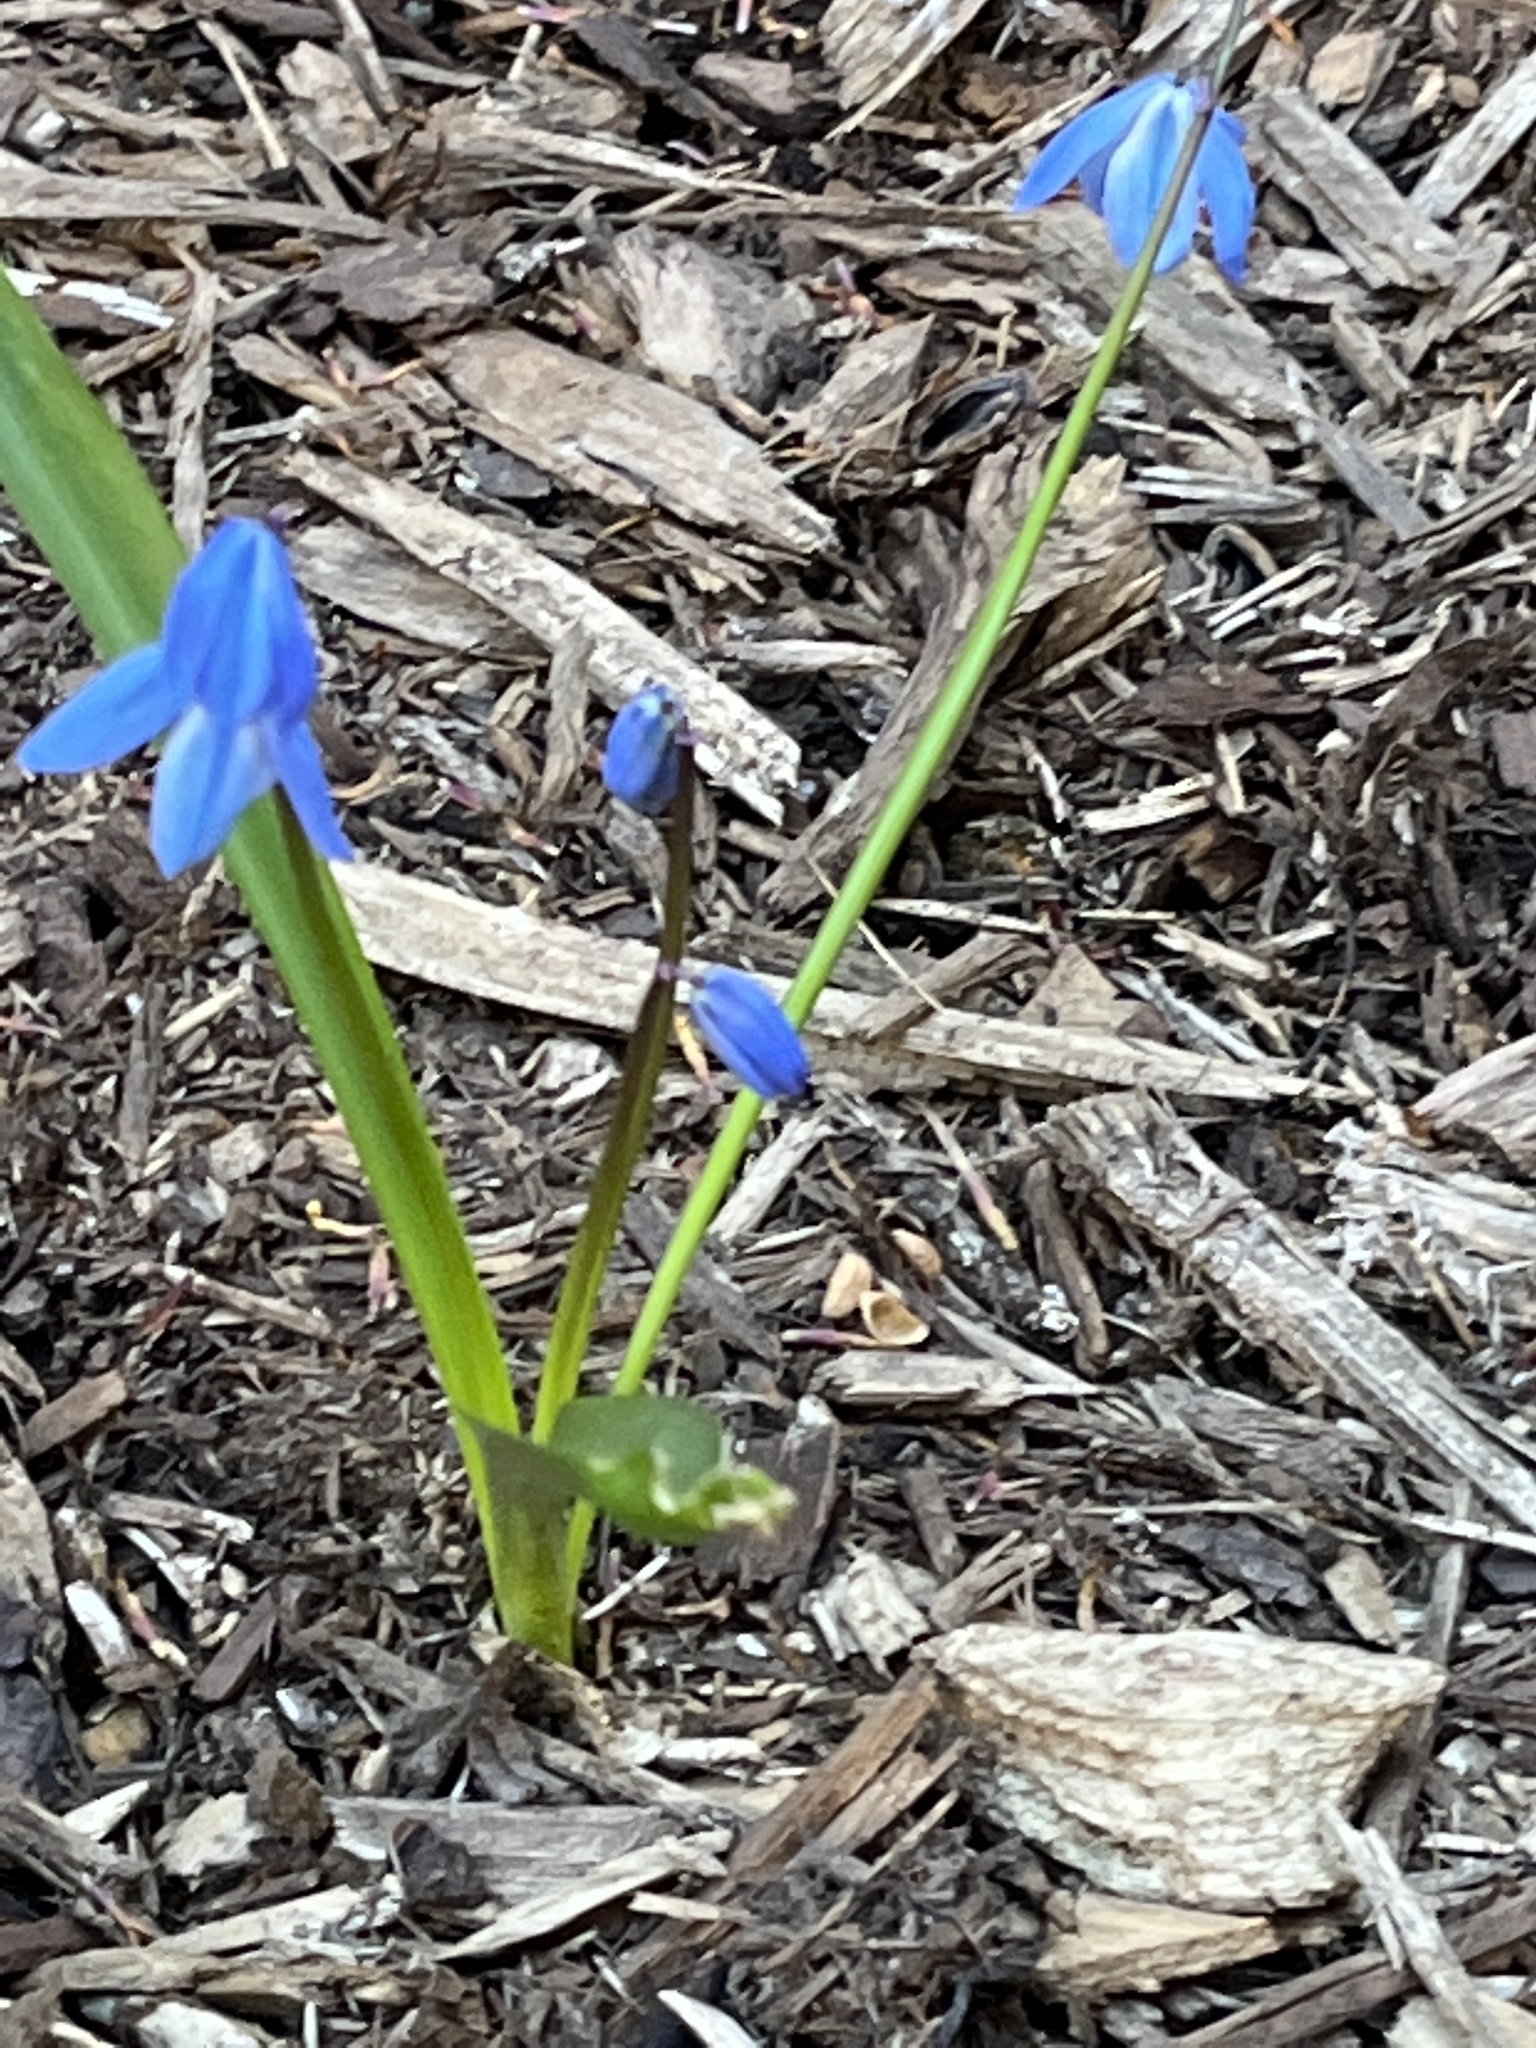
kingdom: Plantae
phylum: Tracheophyta
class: Liliopsida
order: Asparagales
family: Asparagaceae
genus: Scilla
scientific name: Scilla siberica
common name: Siberian squill
